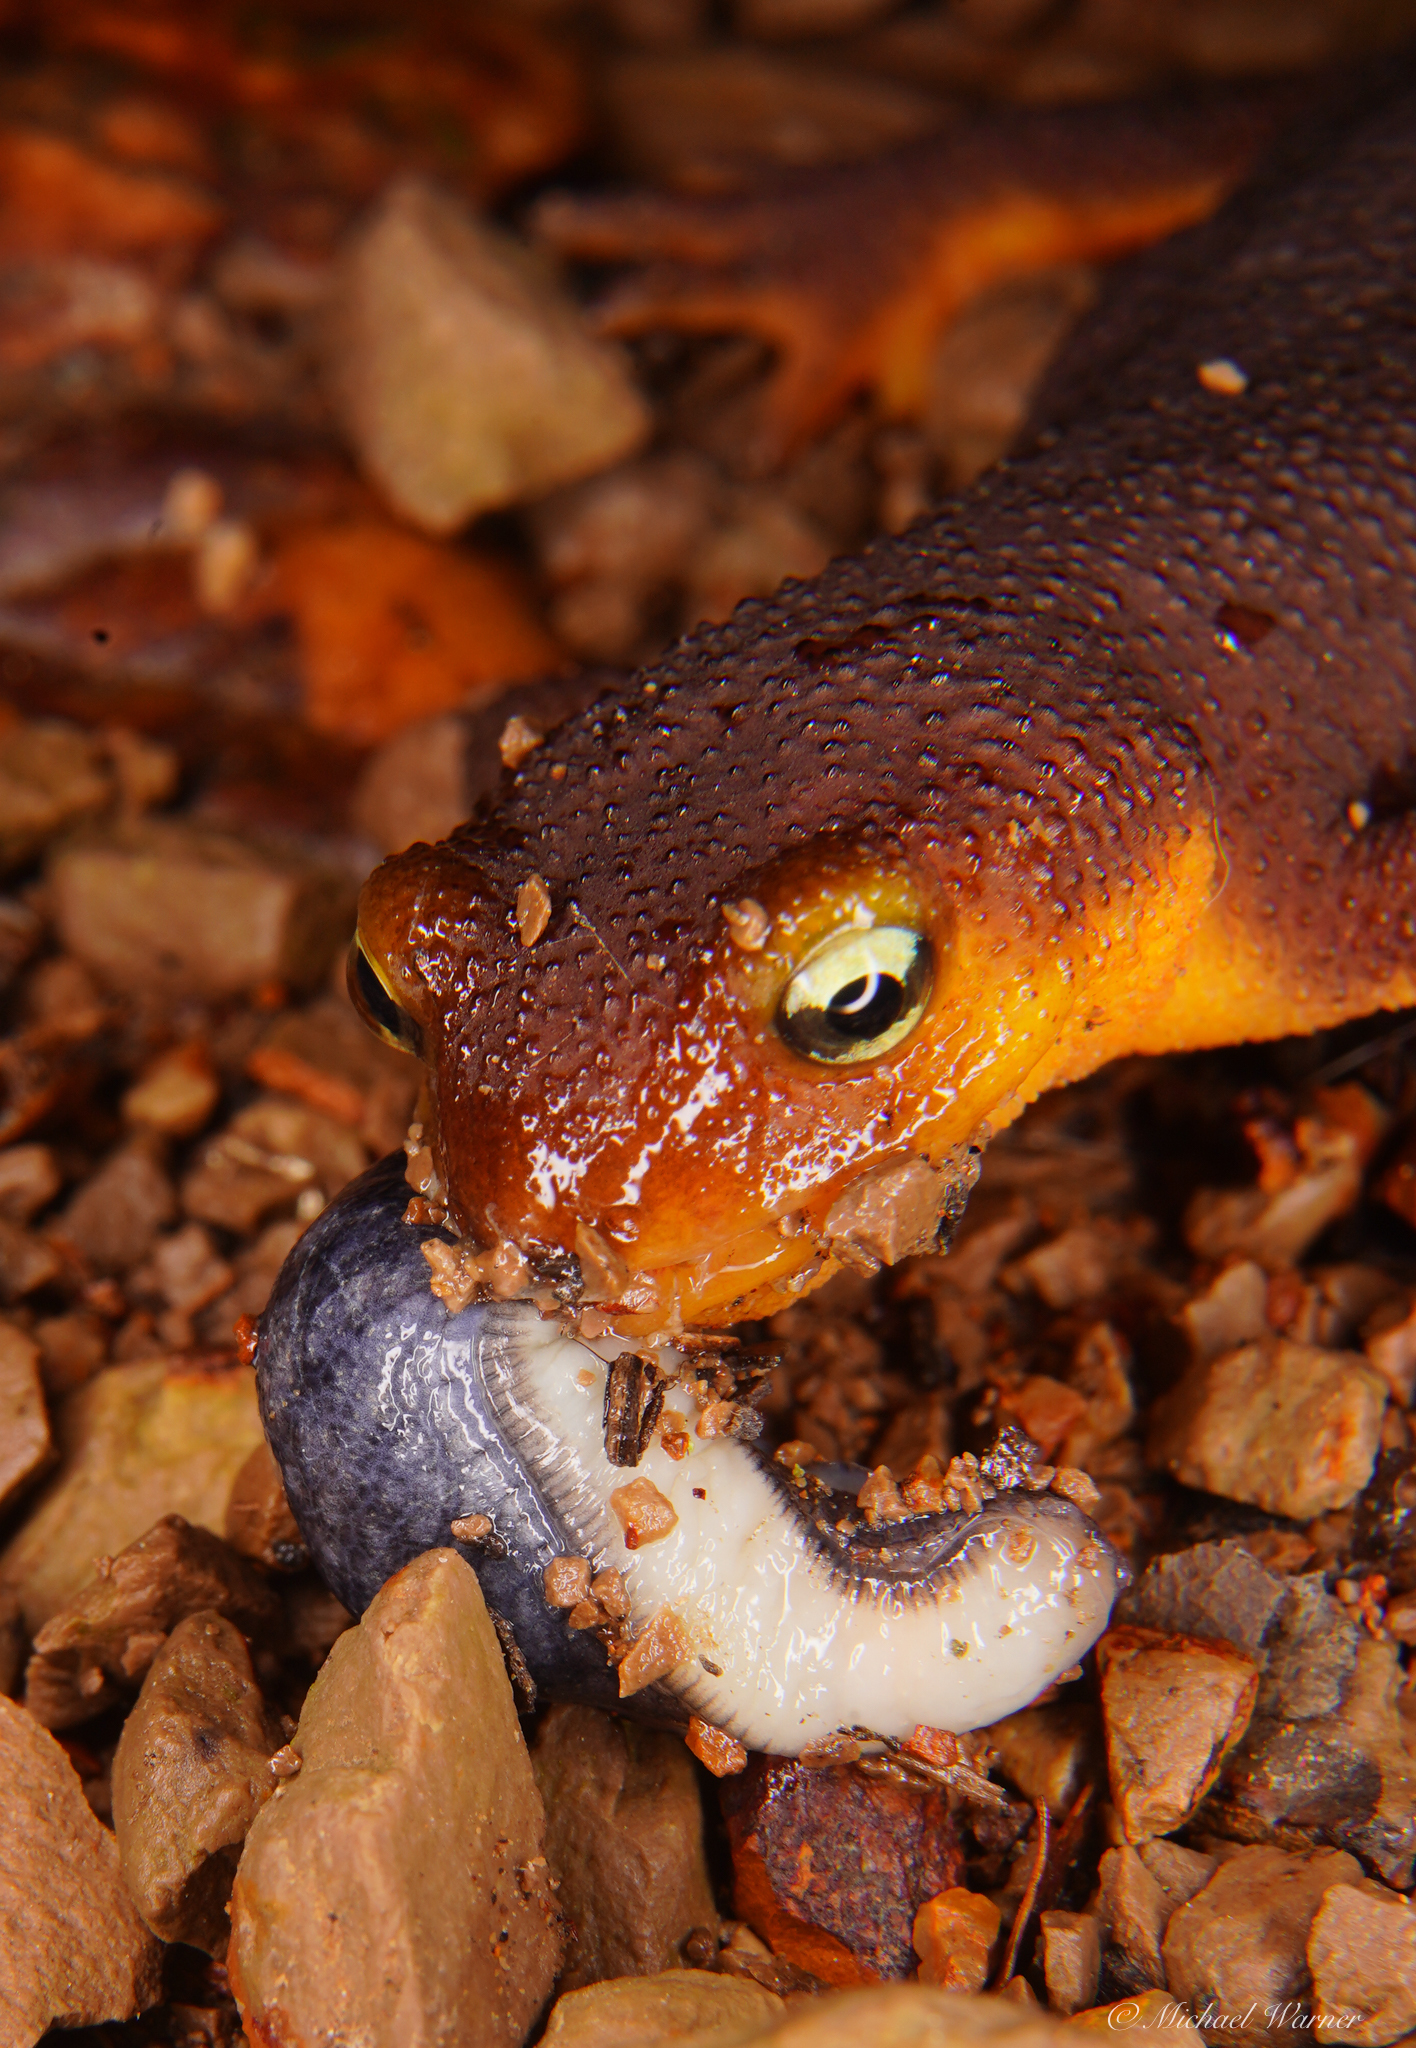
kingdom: Animalia
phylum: Chordata
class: Amphibia
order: Caudata
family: Salamandridae
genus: Taricha
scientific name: Taricha torosa
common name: California newt
